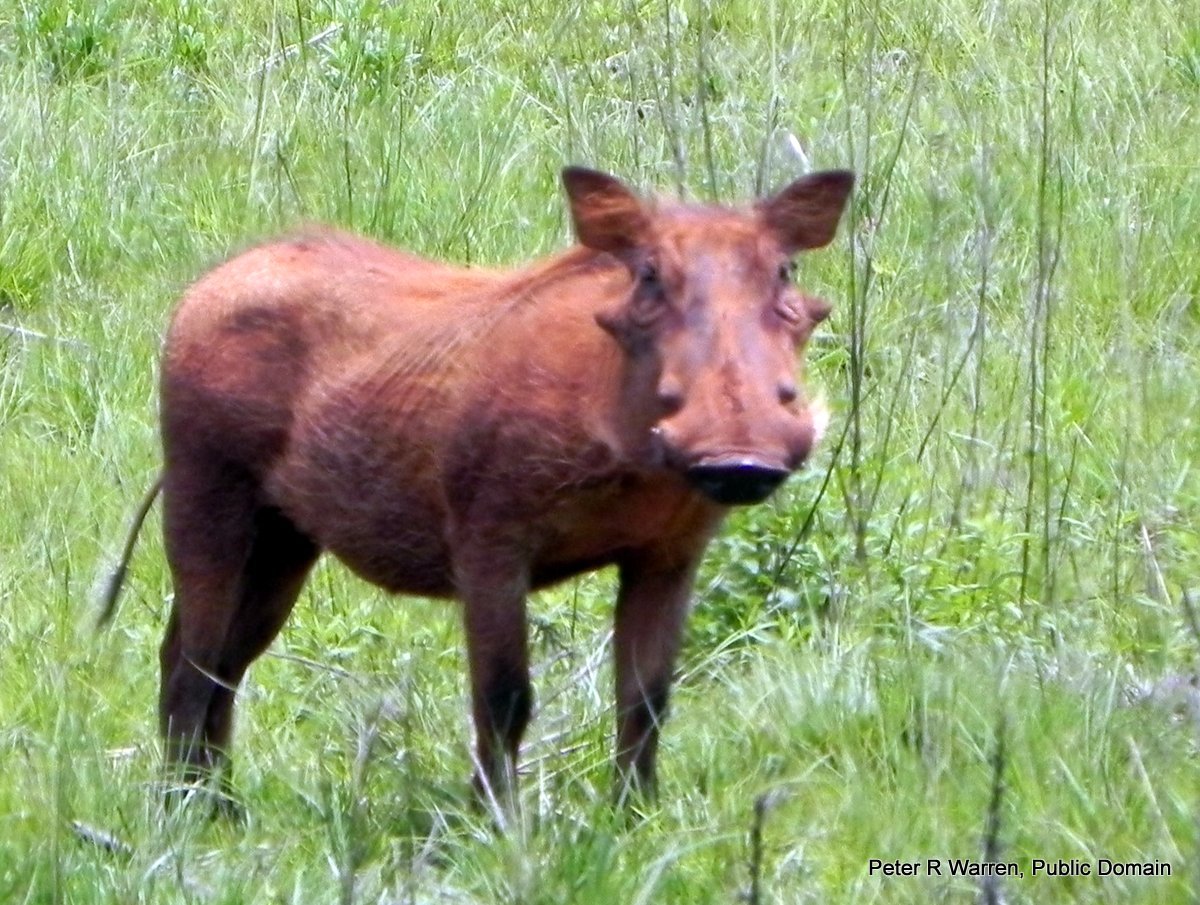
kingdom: Animalia
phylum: Chordata
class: Mammalia
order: Artiodactyla
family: Suidae
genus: Phacochoerus
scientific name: Phacochoerus africanus
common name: Common warthog
